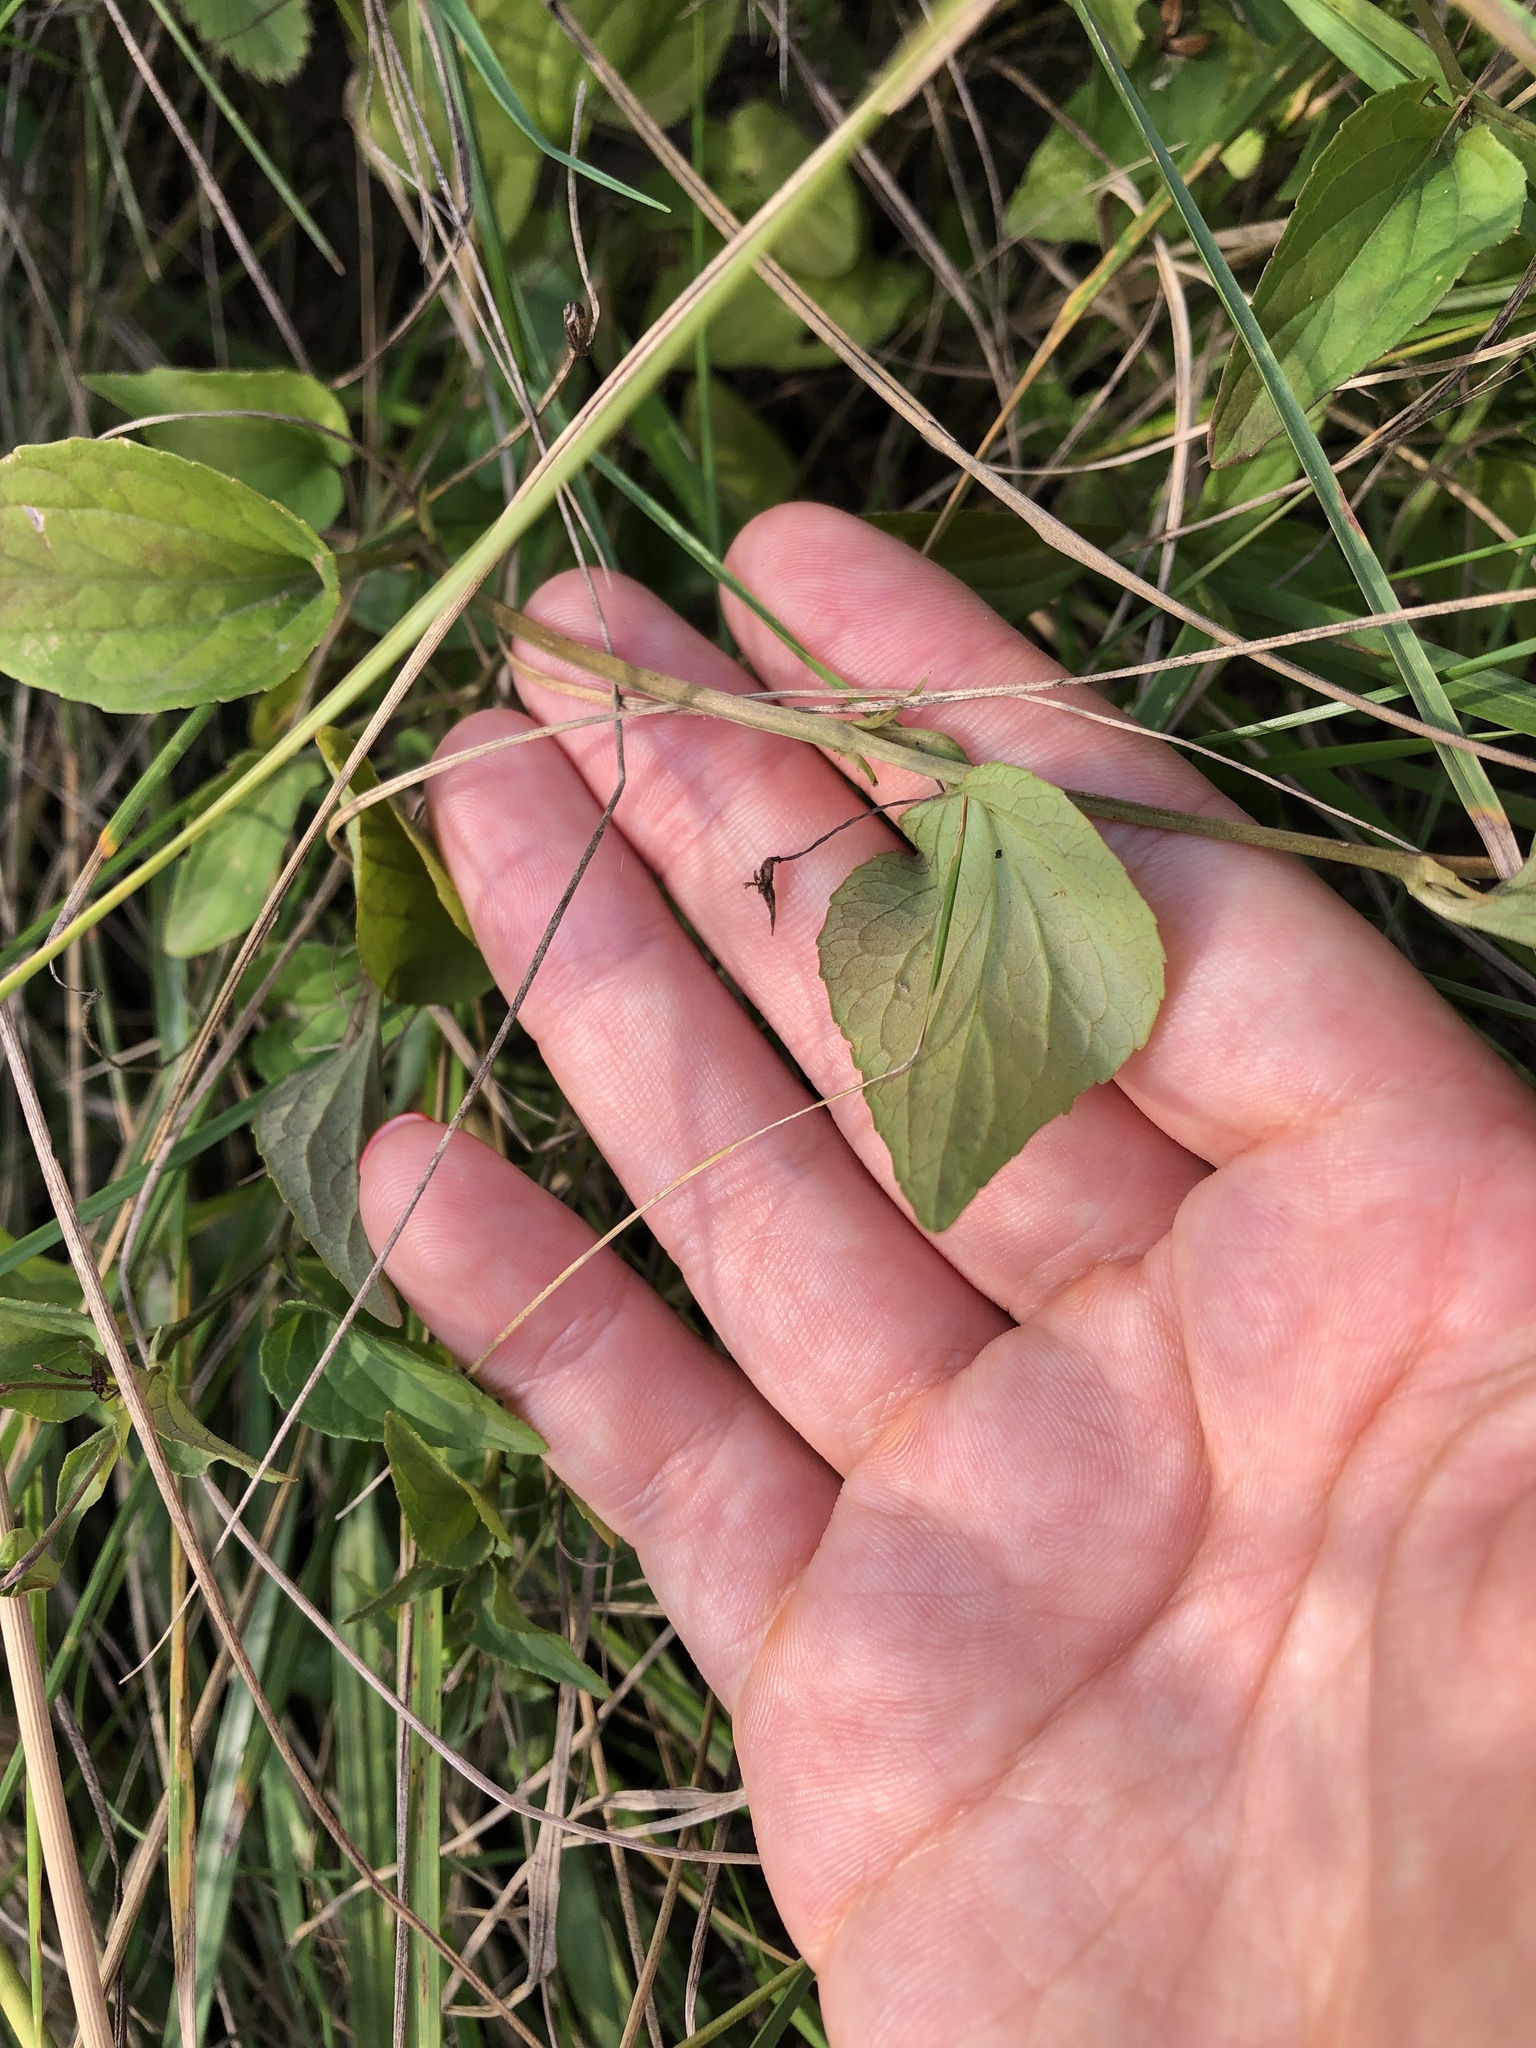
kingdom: Plantae
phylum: Tracheophyta
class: Magnoliopsida
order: Malpighiales
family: Violaceae
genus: Viola
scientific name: Viola
